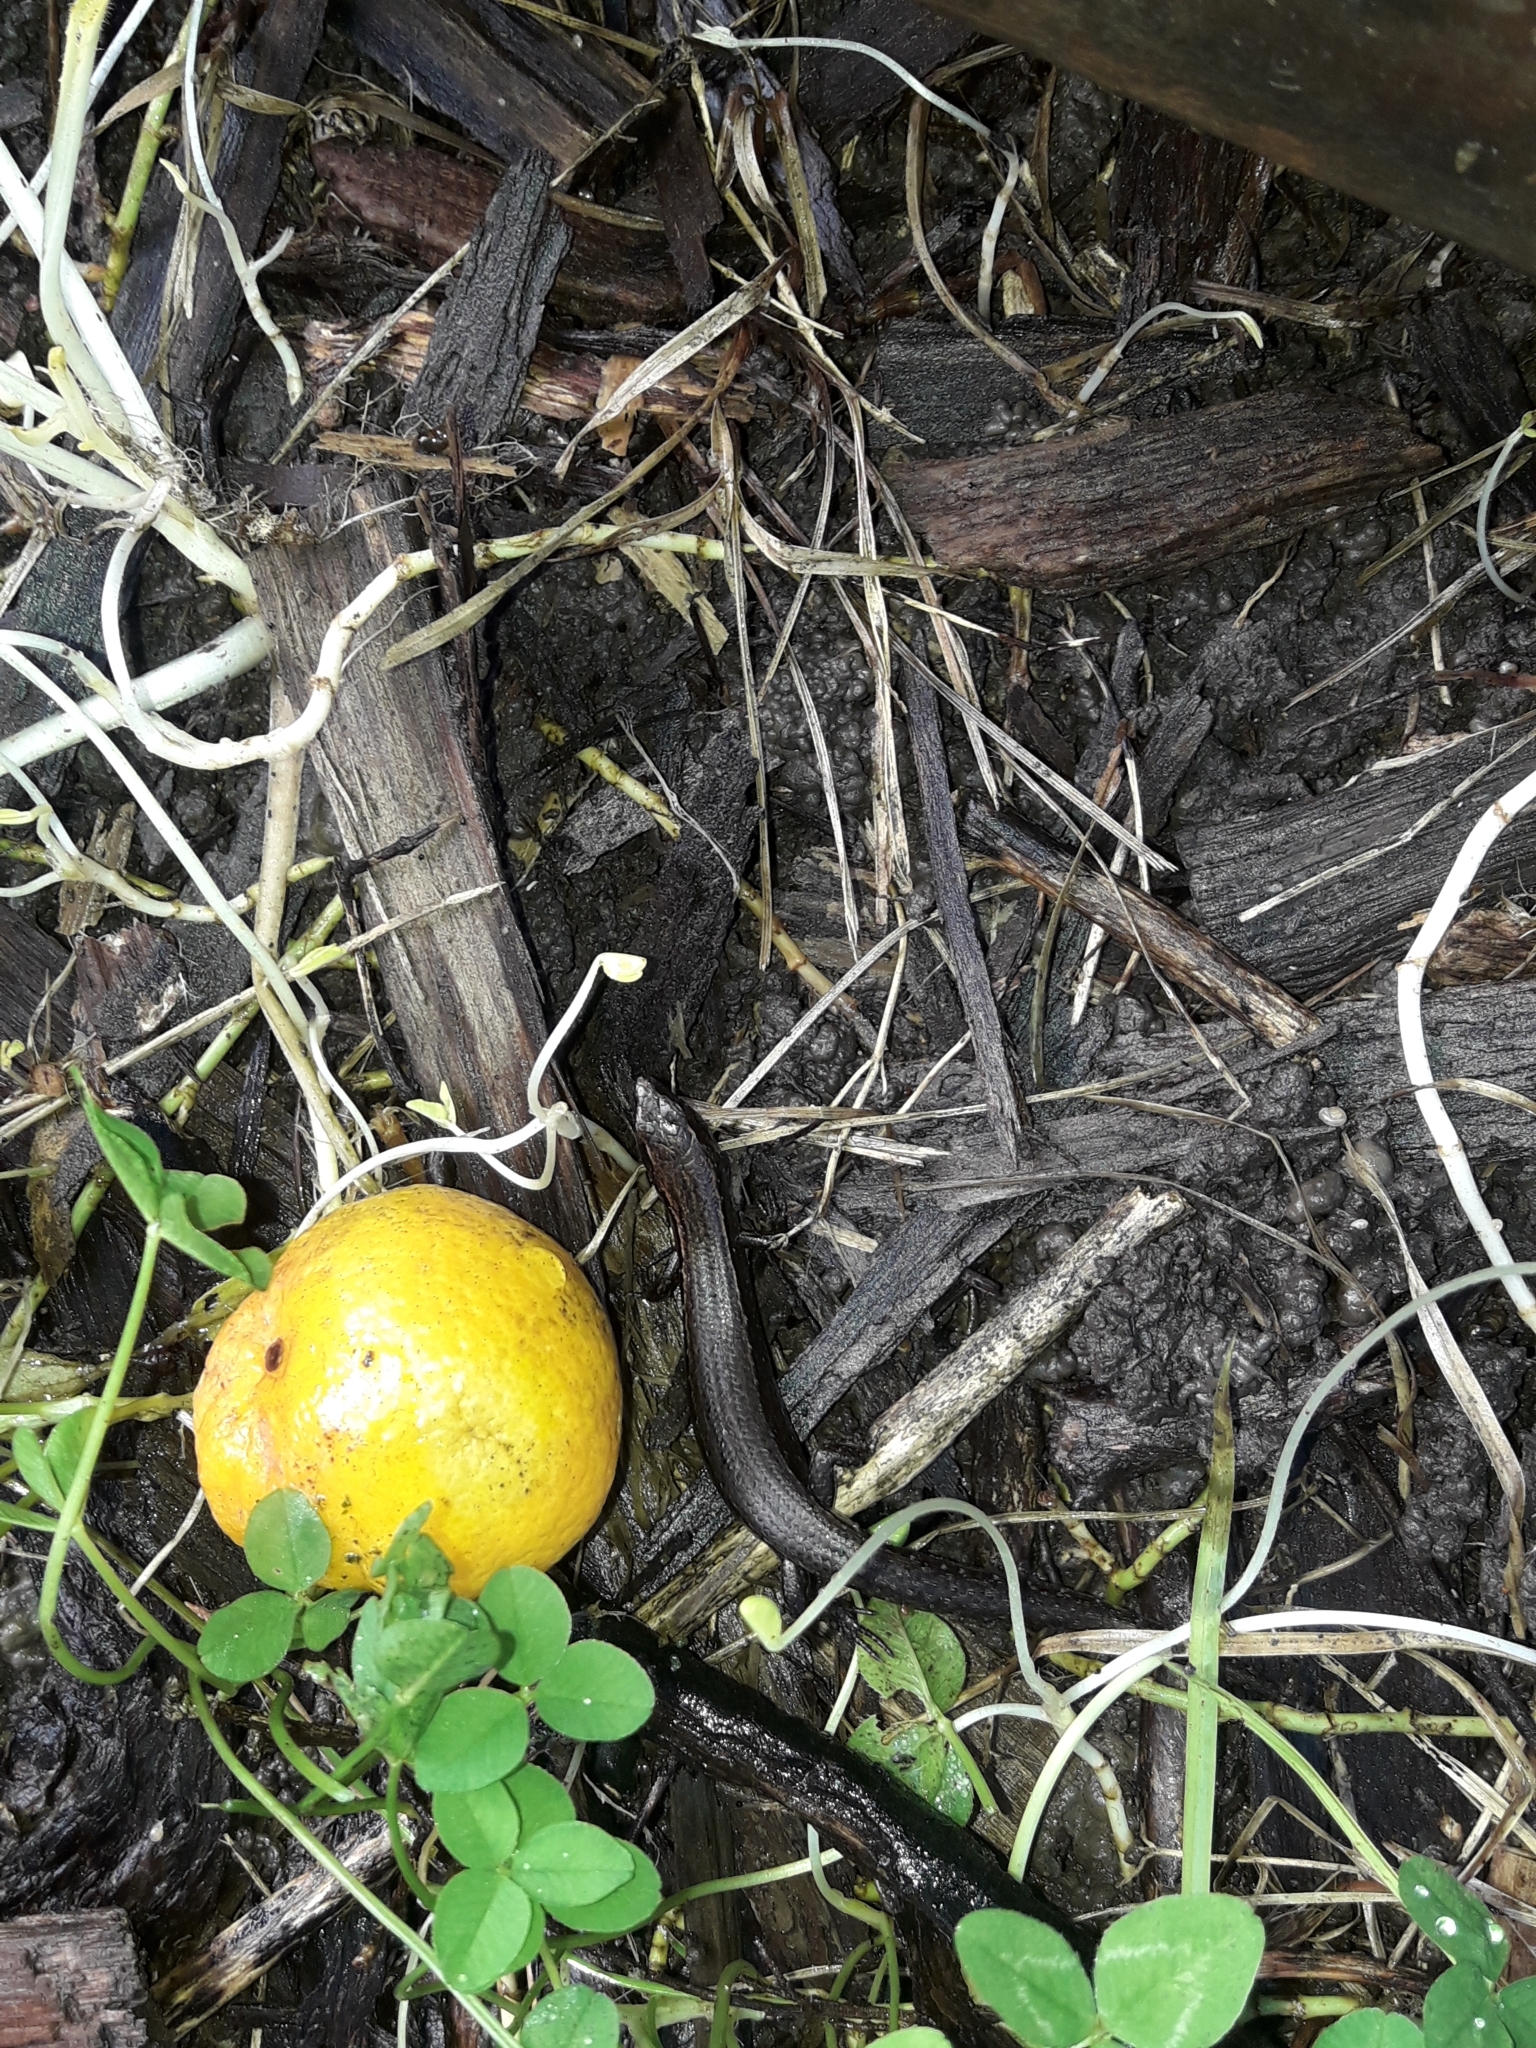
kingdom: Animalia
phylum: Chordata
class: Squamata
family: Scincidae
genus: Oligosoma
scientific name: Oligosoma aeneum
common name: Copper skink
